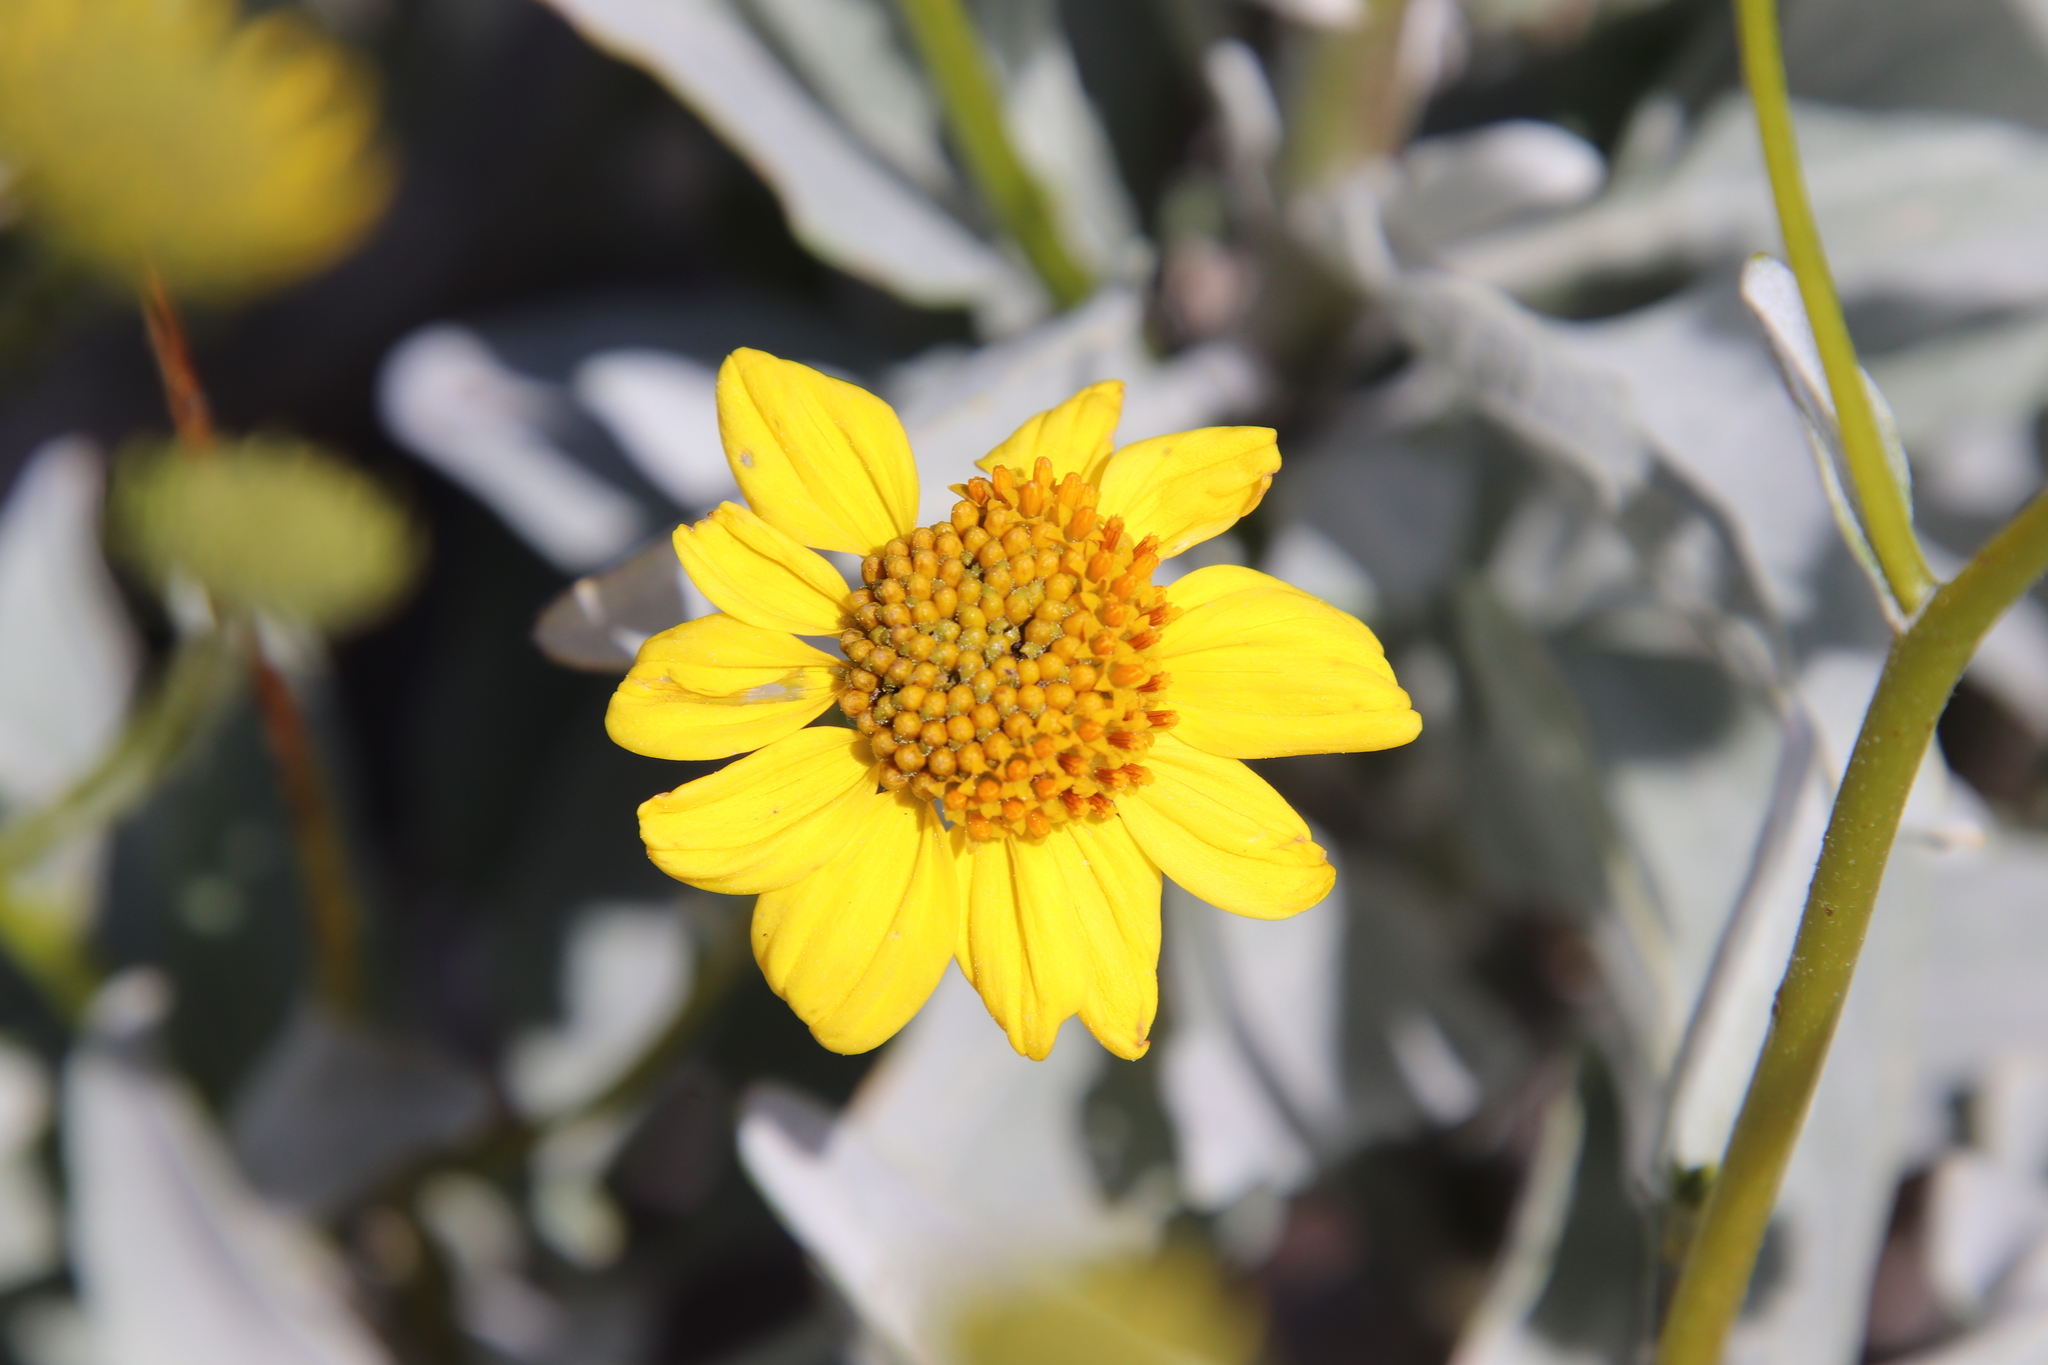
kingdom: Plantae
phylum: Tracheophyta
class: Magnoliopsida
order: Asterales
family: Asteraceae
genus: Encelia
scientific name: Encelia farinosa
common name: Brittlebush
